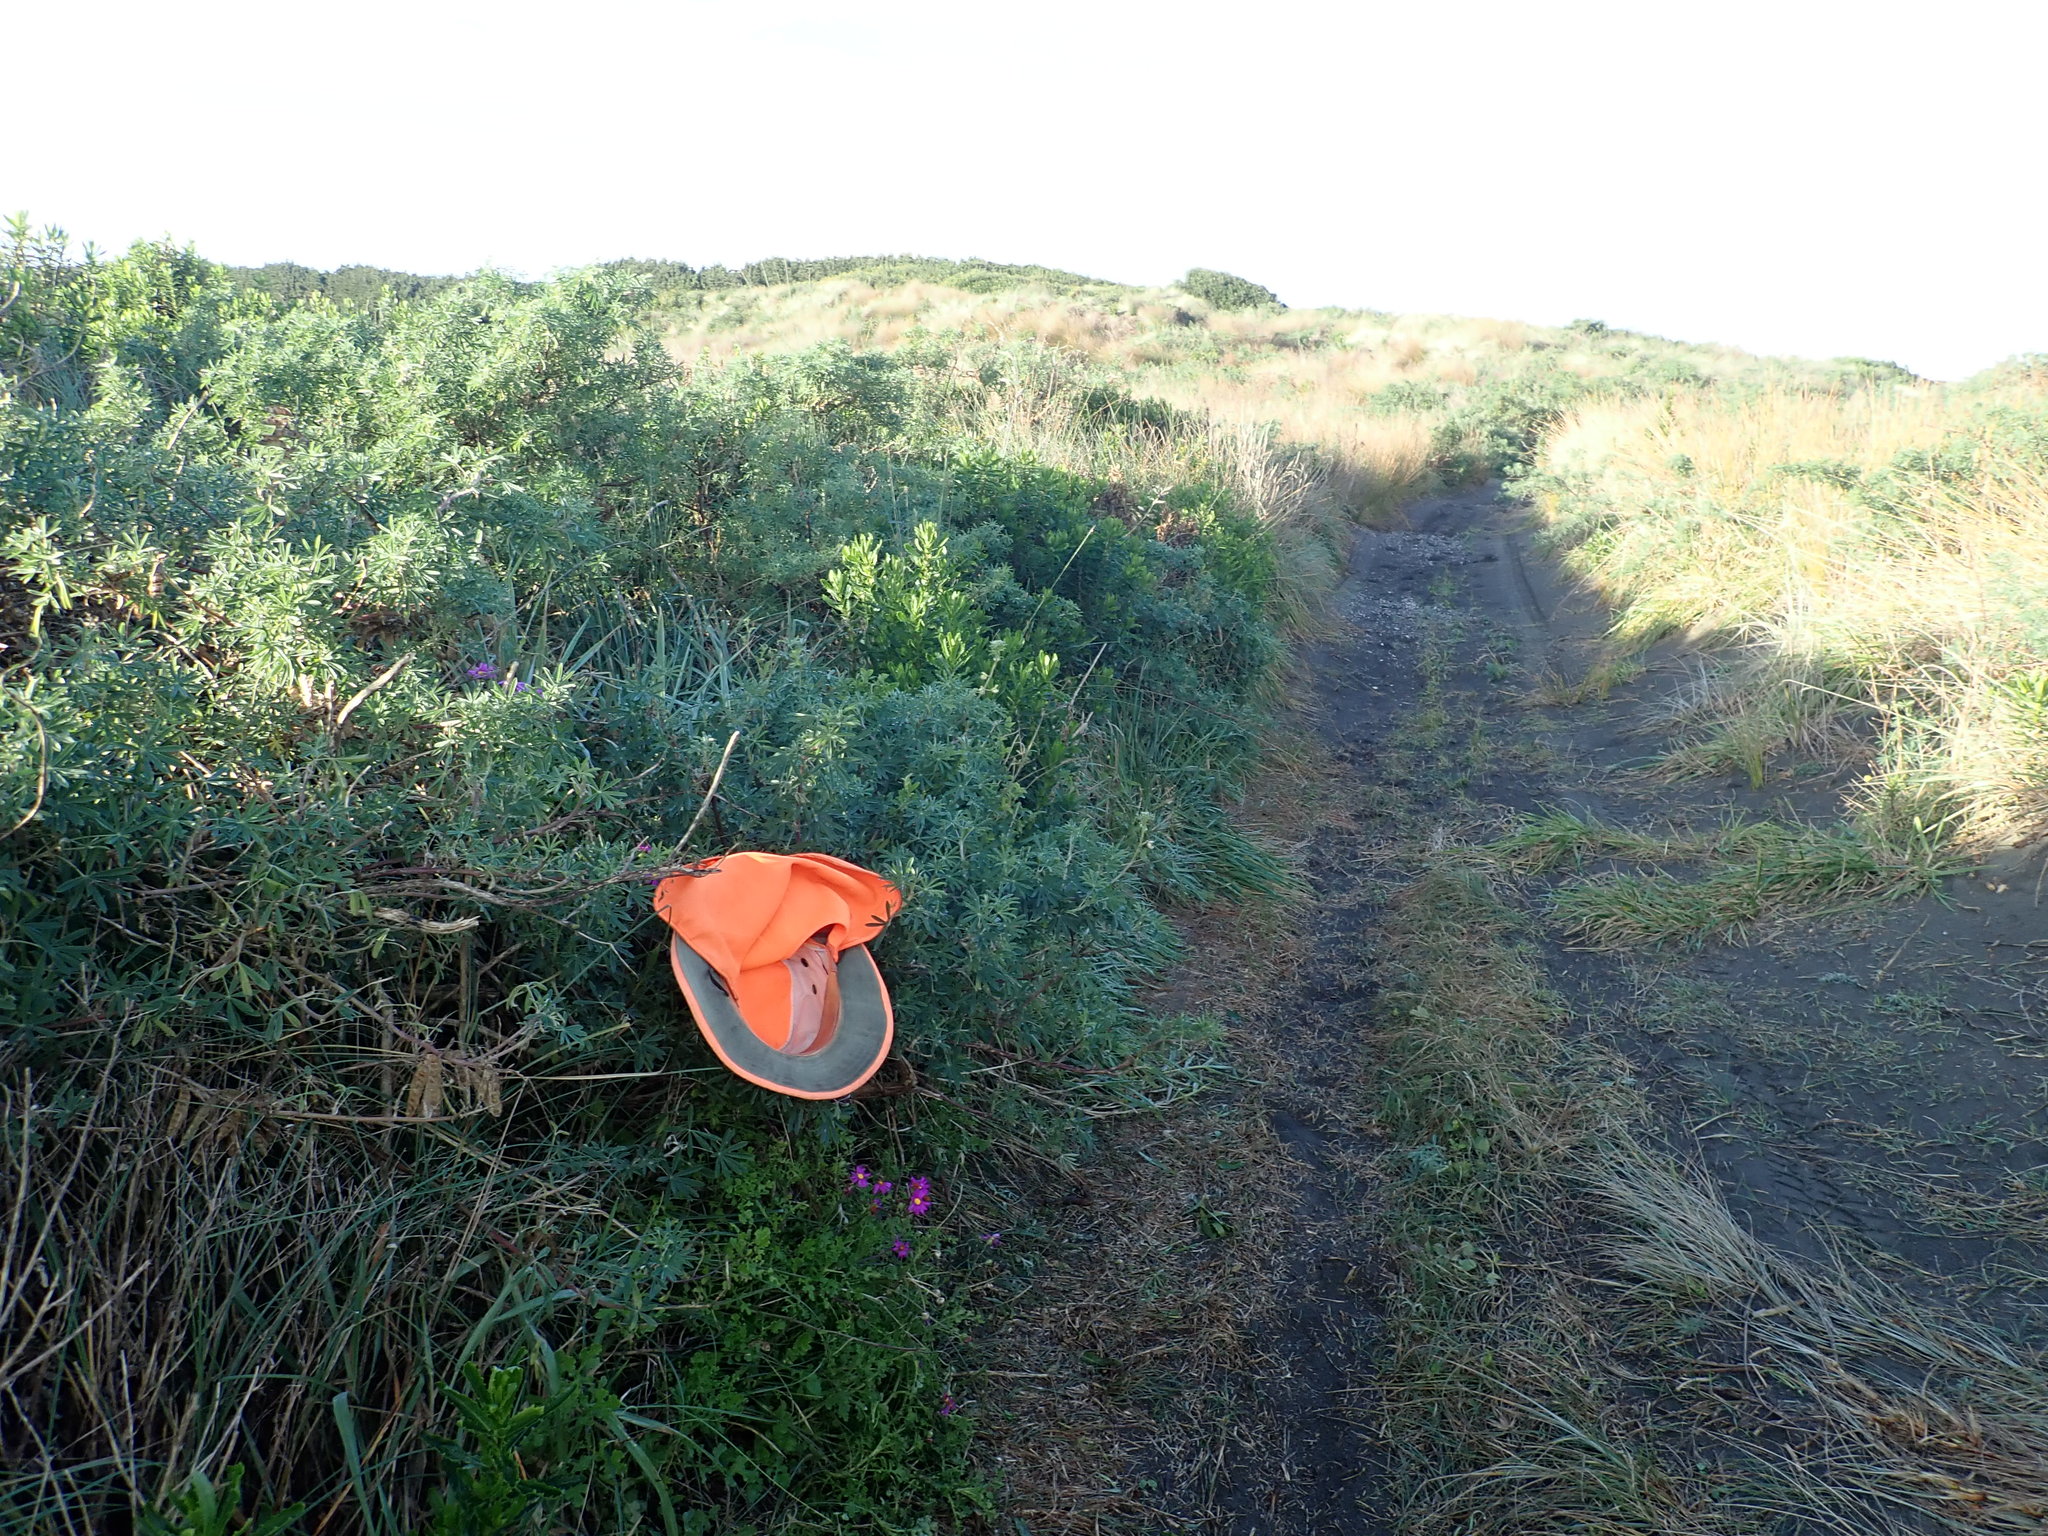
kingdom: Plantae
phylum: Tracheophyta
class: Magnoliopsida
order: Asterales
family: Asteraceae
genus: Senecio
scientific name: Senecio elegans
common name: Purple groundsel
